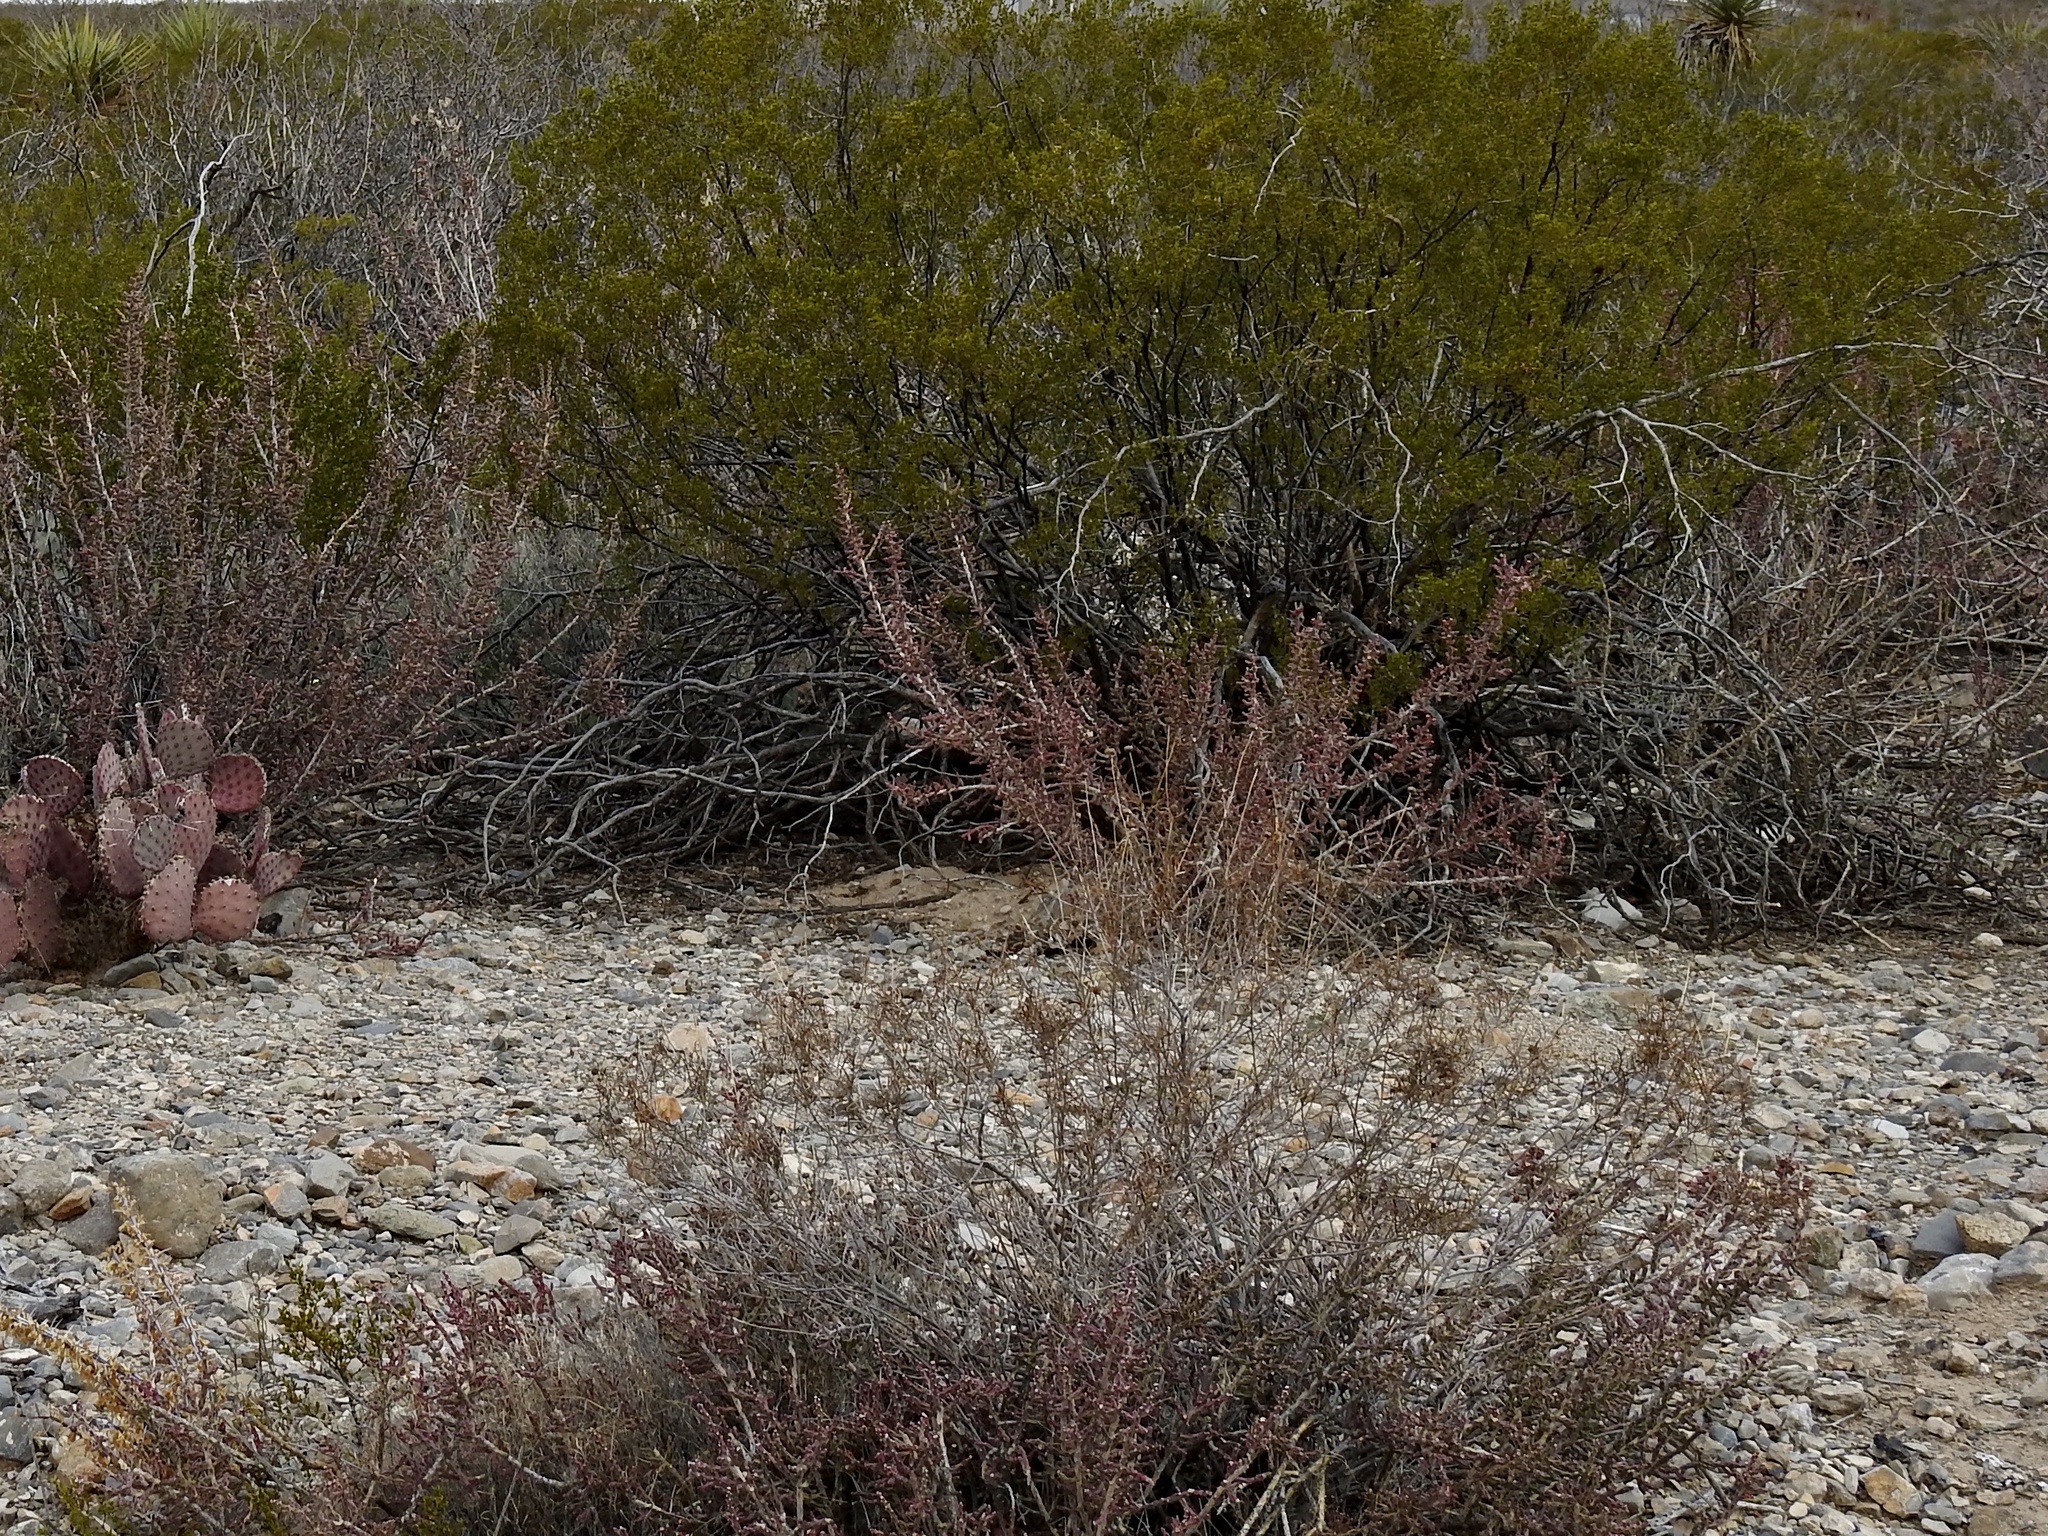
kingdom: Plantae
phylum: Tracheophyta
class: Magnoliopsida
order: Caryophyllales
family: Cactaceae
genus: Cylindropuntia
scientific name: Cylindropuntia leptocaulis
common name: Christmas cactus
